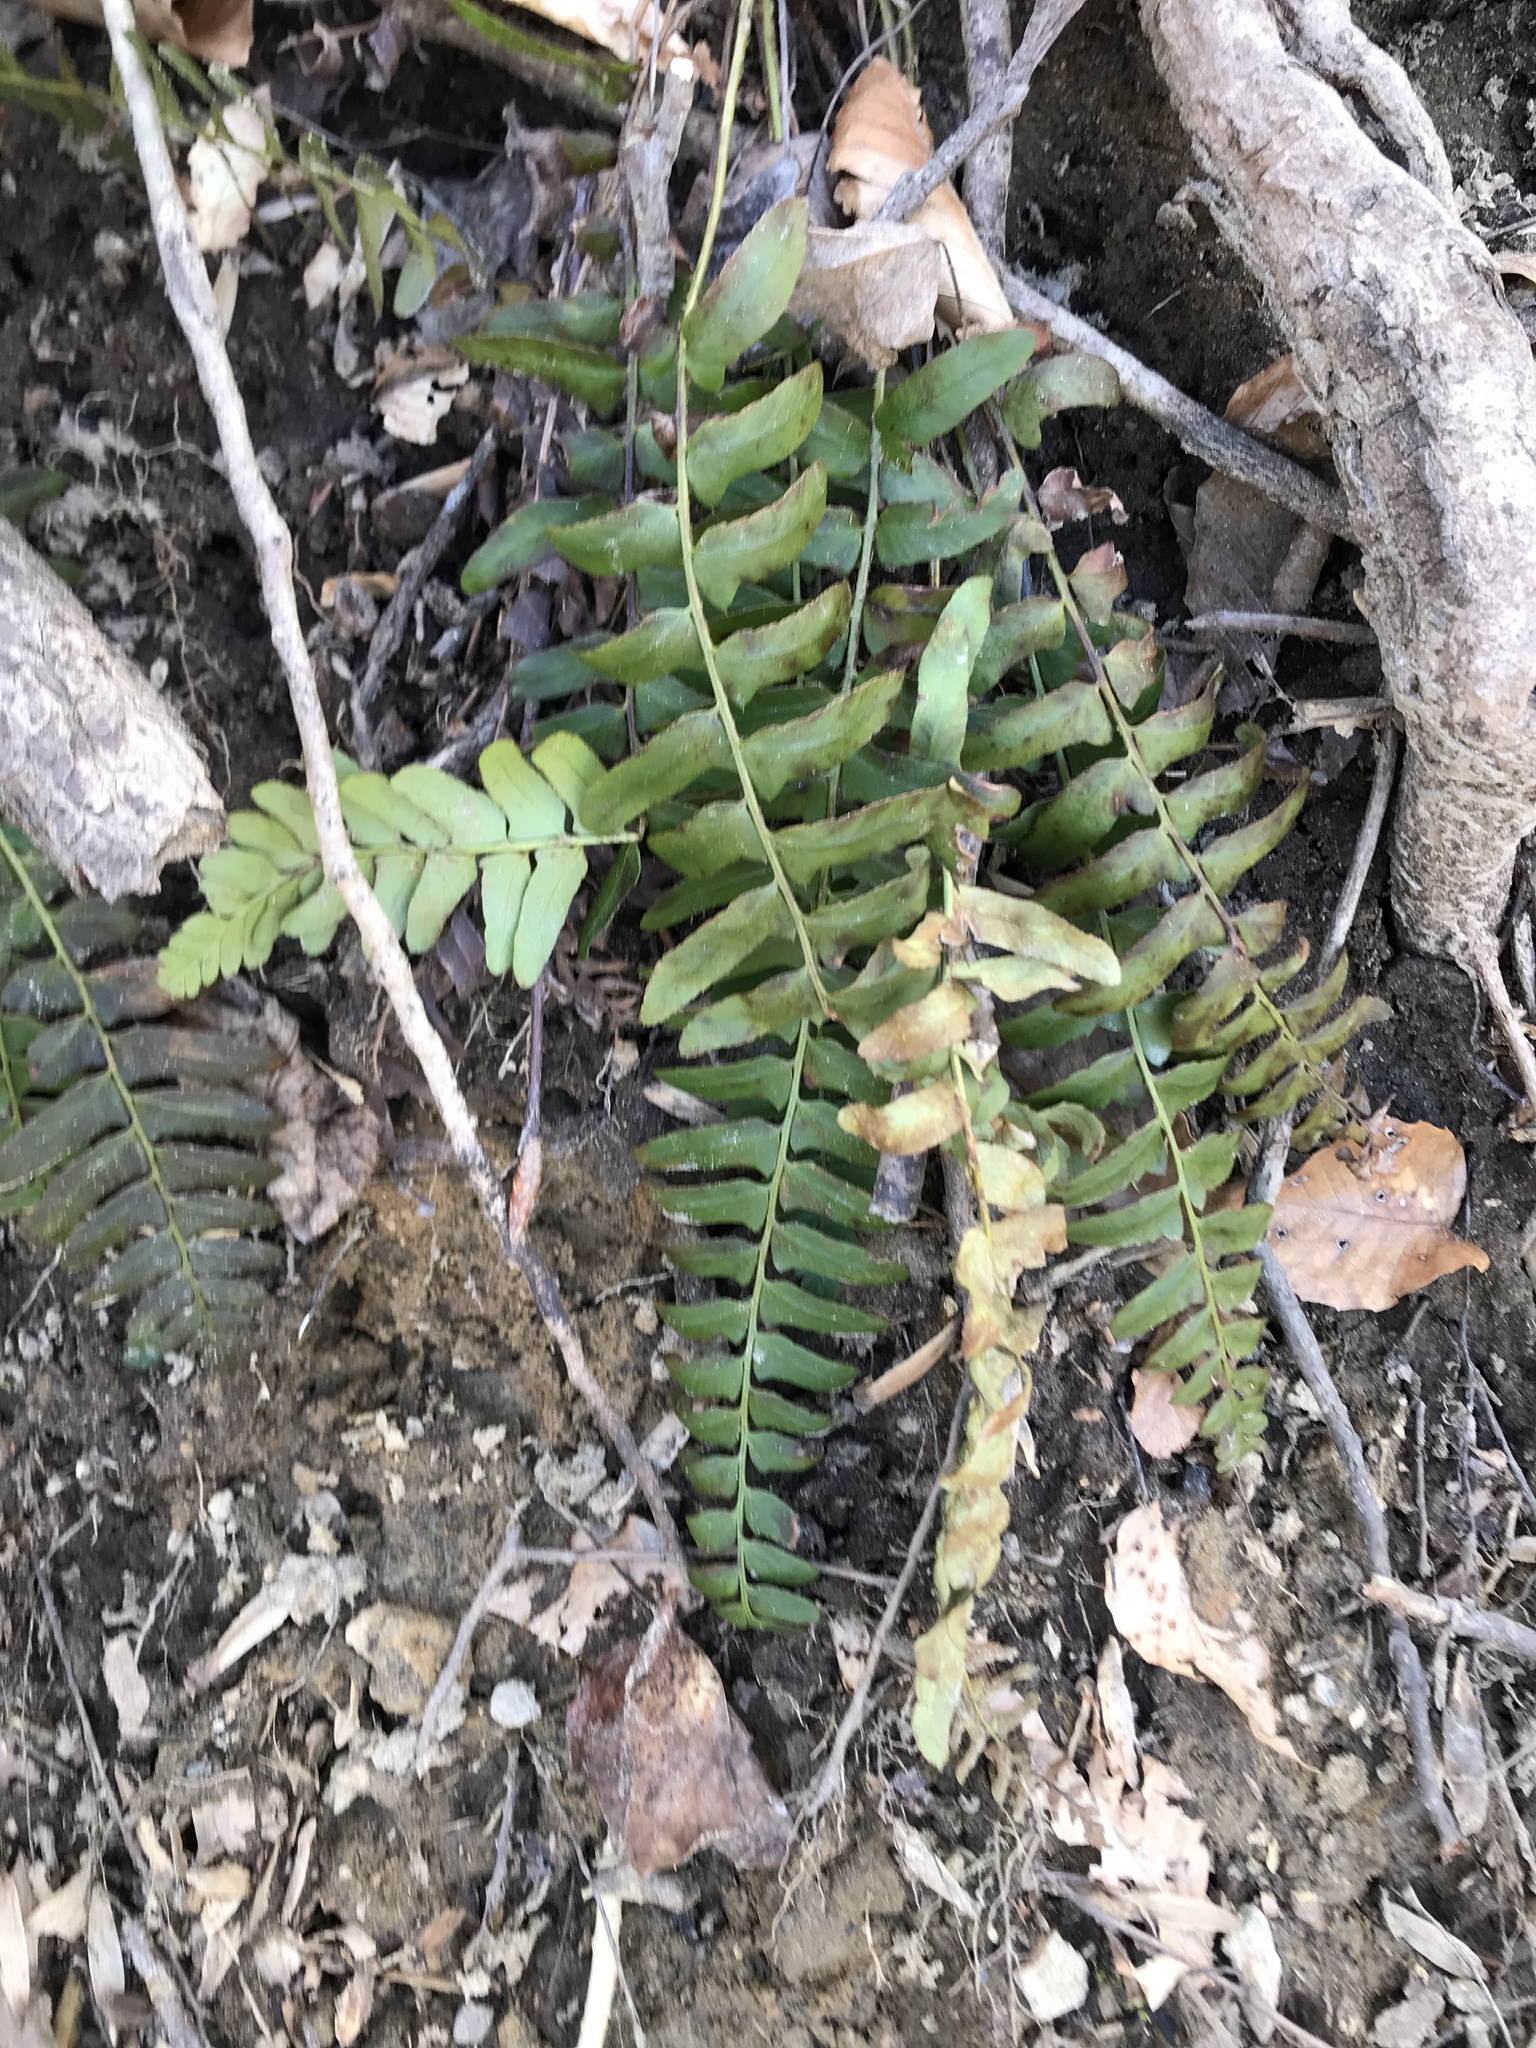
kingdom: Plantae
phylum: Tracheophyta
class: Polypodiopsida
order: Polypodiales
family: Dryopteridaceae
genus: Polystichum
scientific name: Polystichum acrostichoides
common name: Christmas fern
